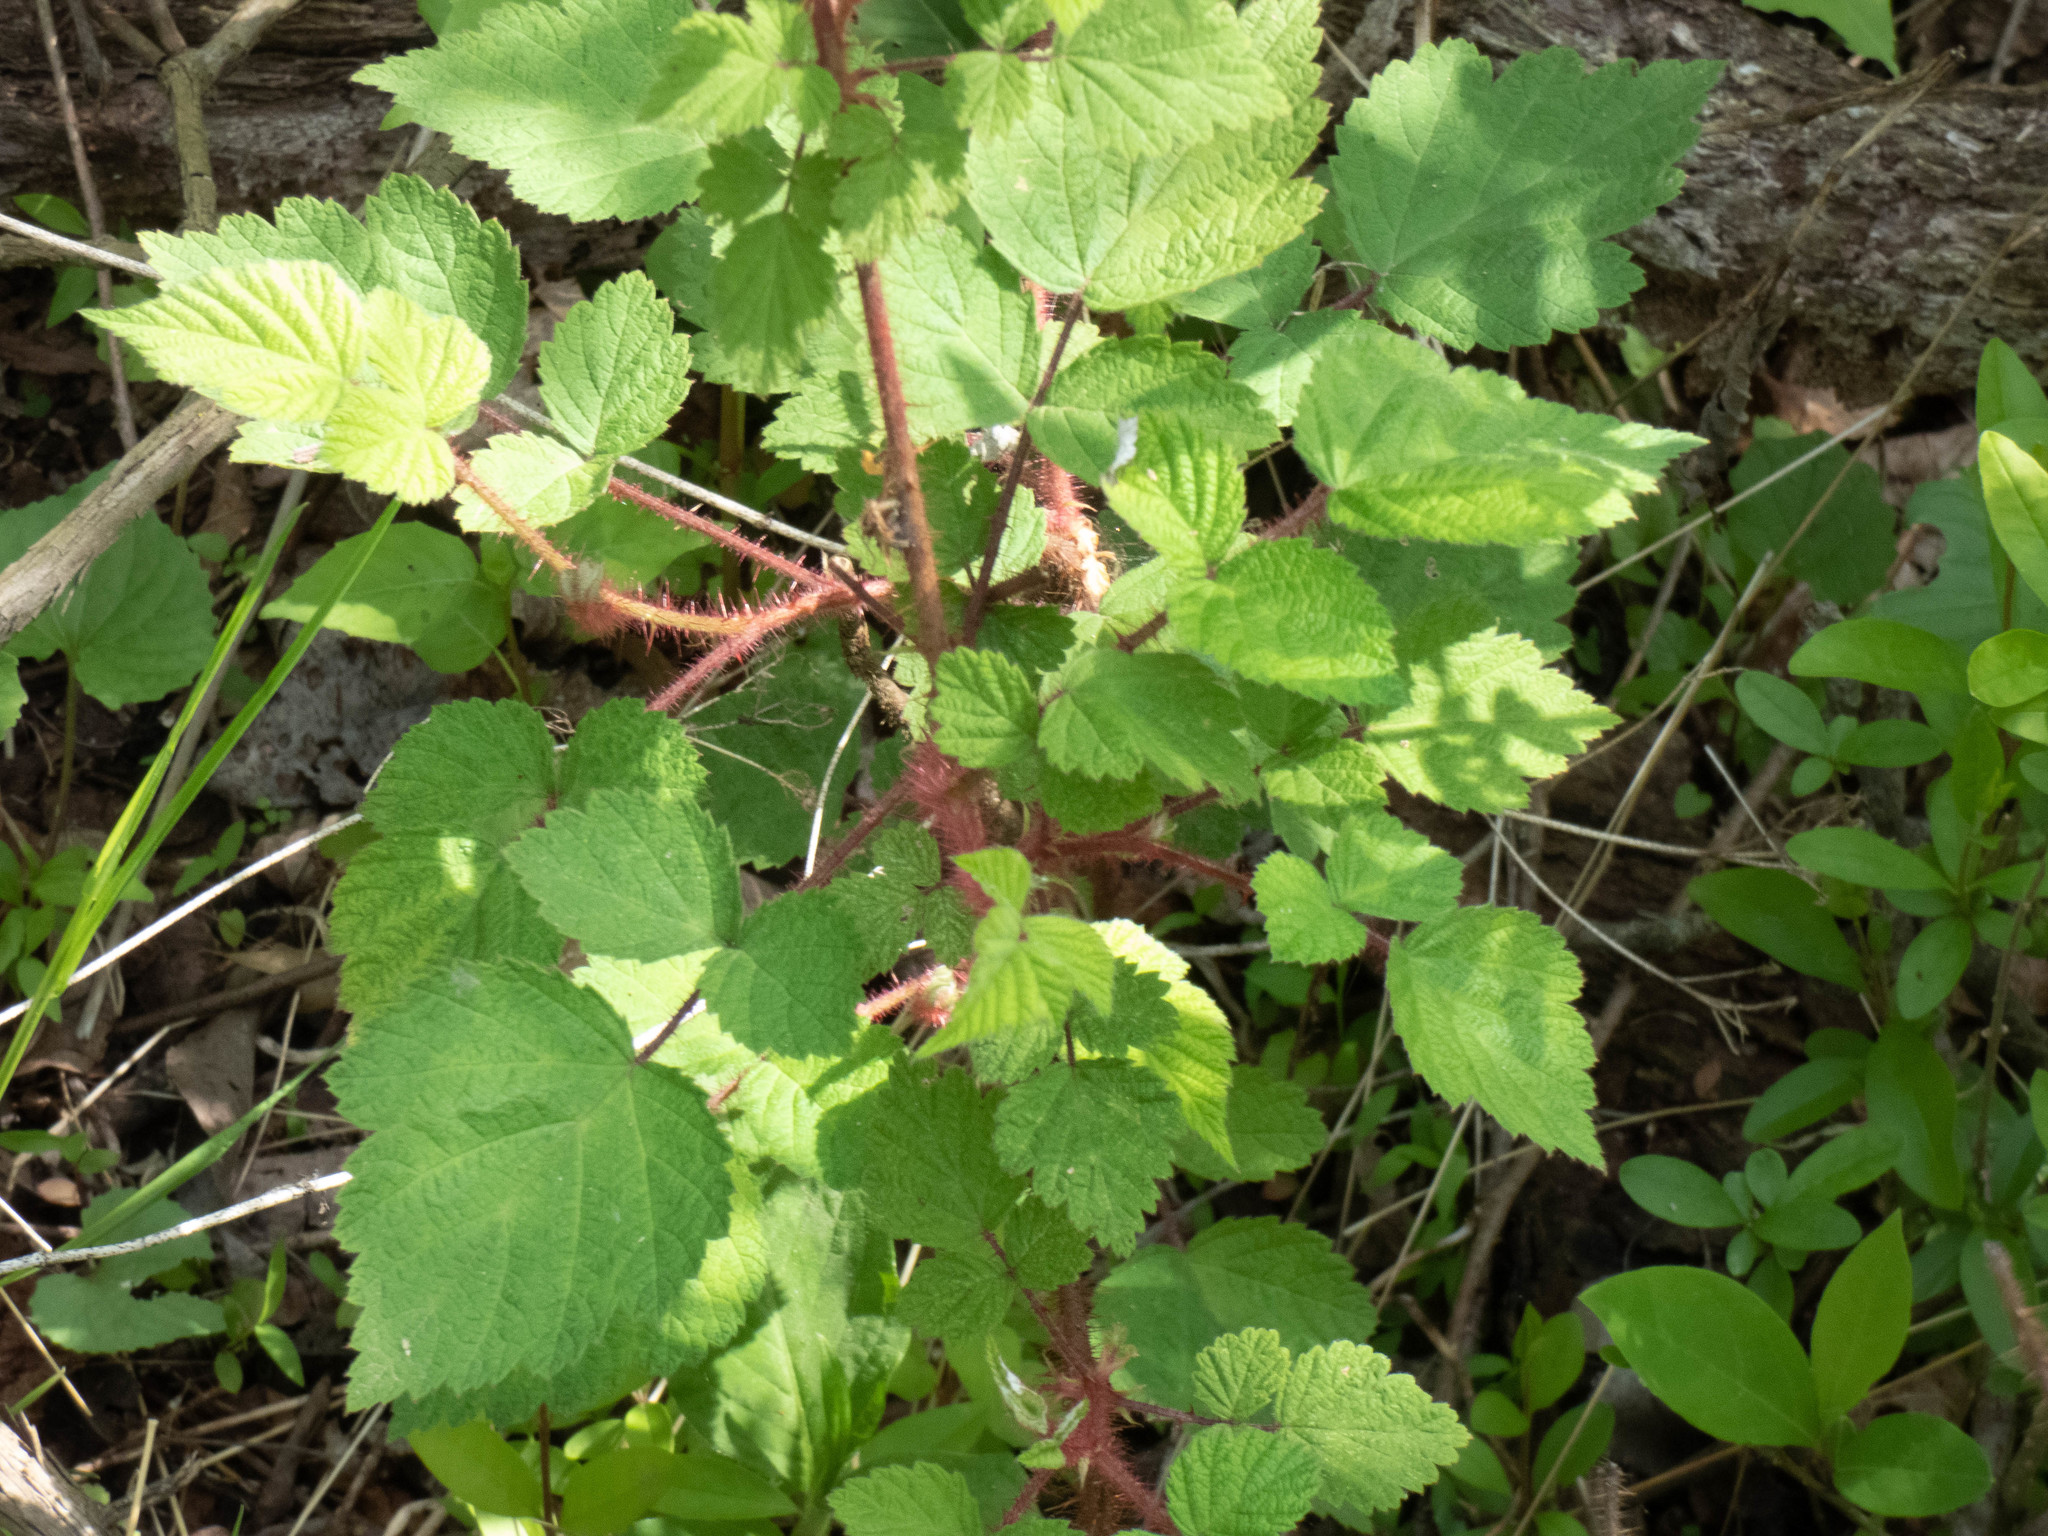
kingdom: Plantae
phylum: Tracheophyta
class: Magnoliopsida
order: Rosales
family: Rosaceae
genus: Rubus
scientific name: Rubus phoenicolasius
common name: Japanese wineberry
